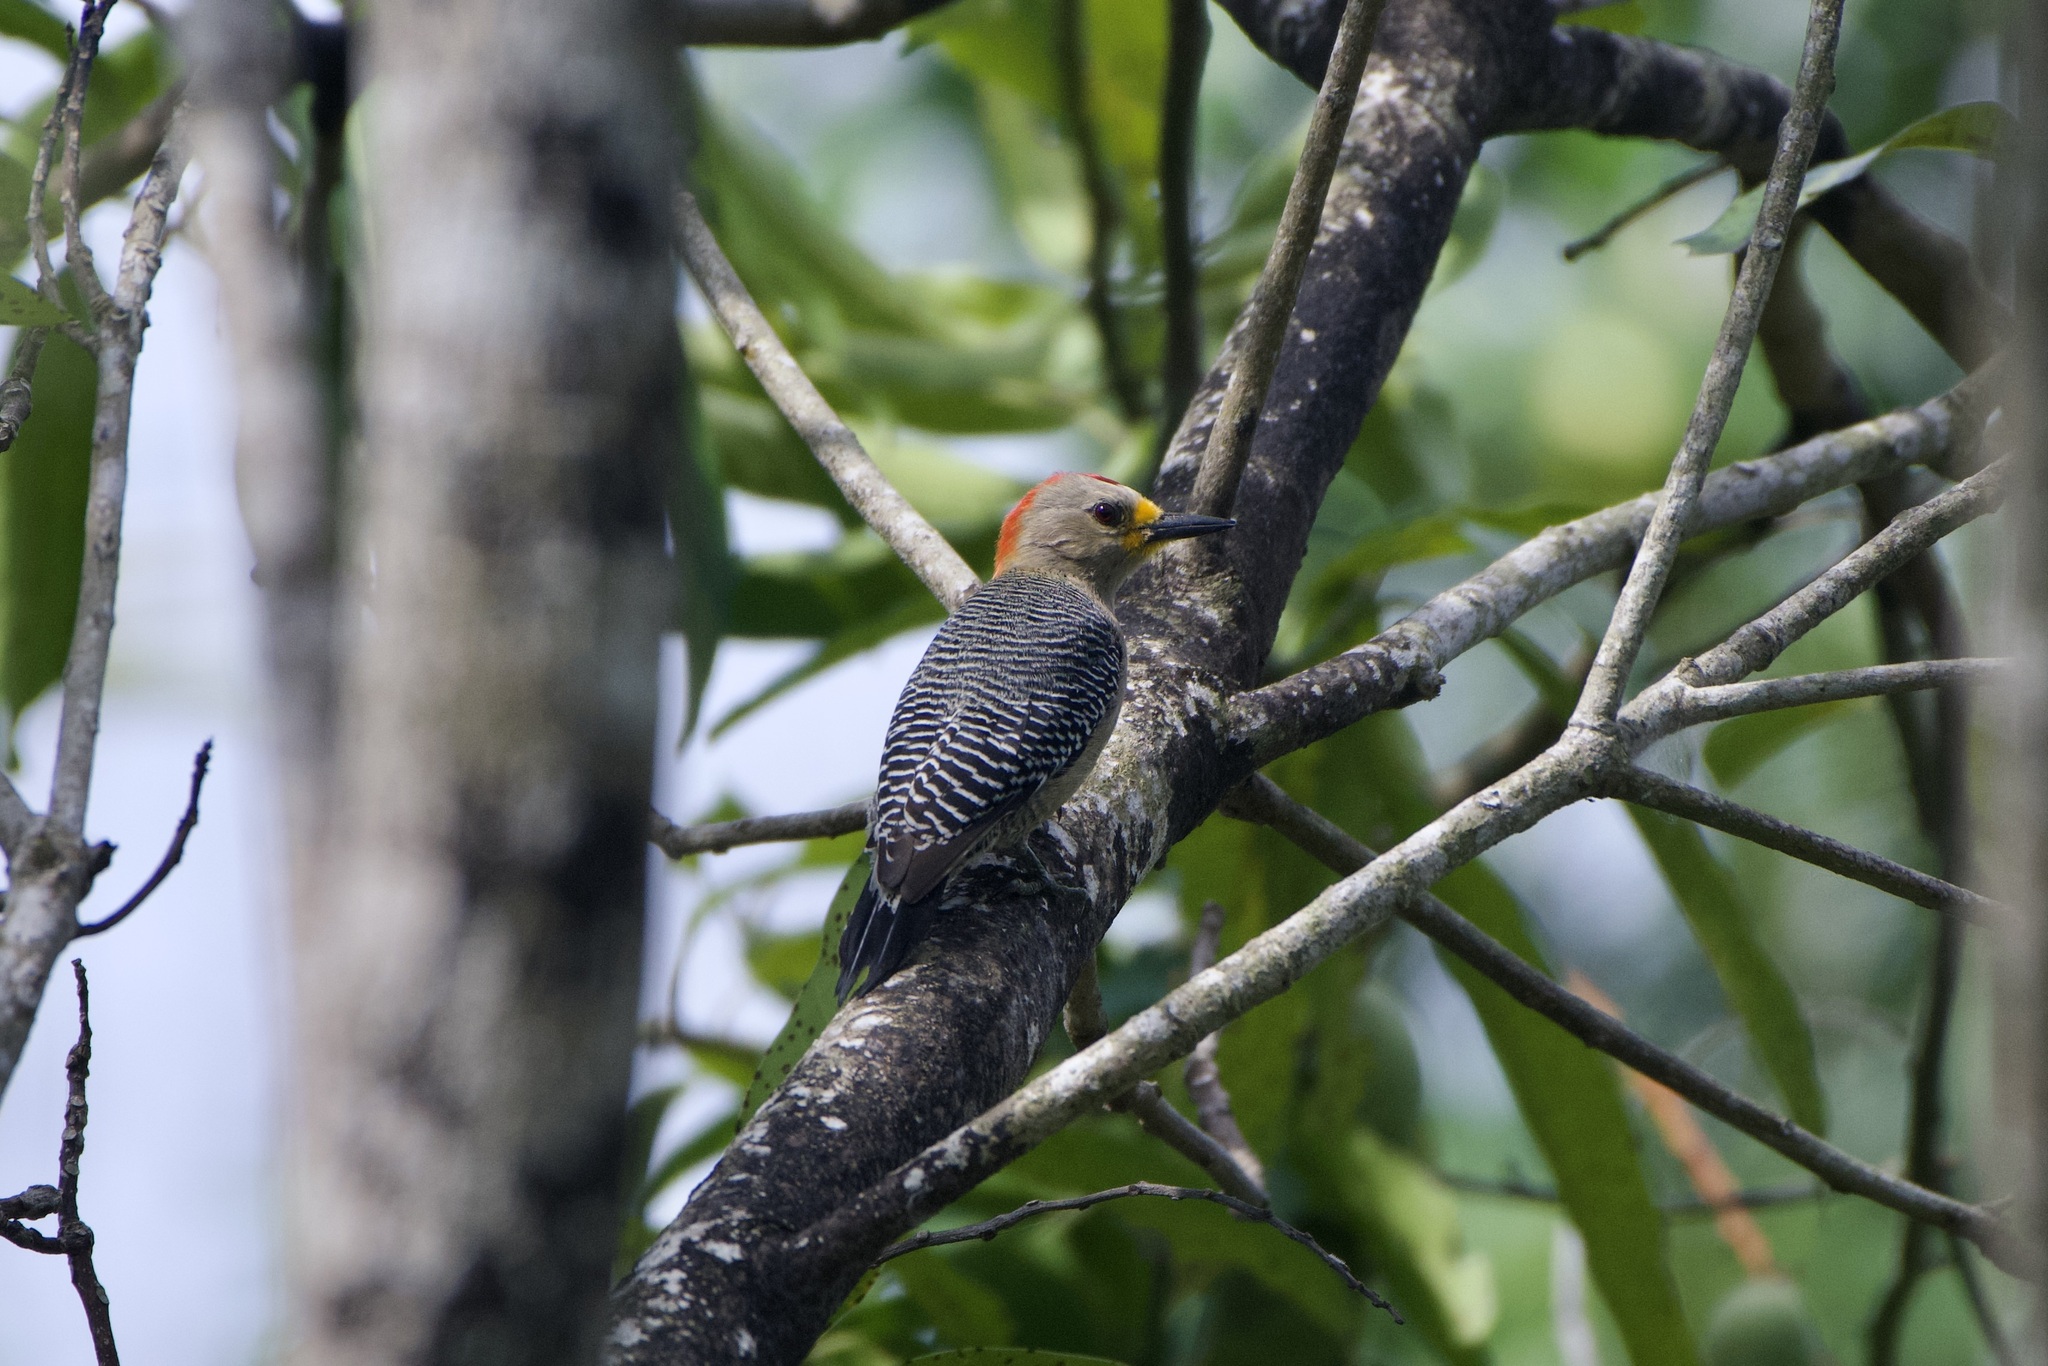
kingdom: Animalia
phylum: Chordata
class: Aves
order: Piciformes
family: Picidae
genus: Melanerpes
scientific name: Melanerpes pygmaeus
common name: Yucatan woodpecker
